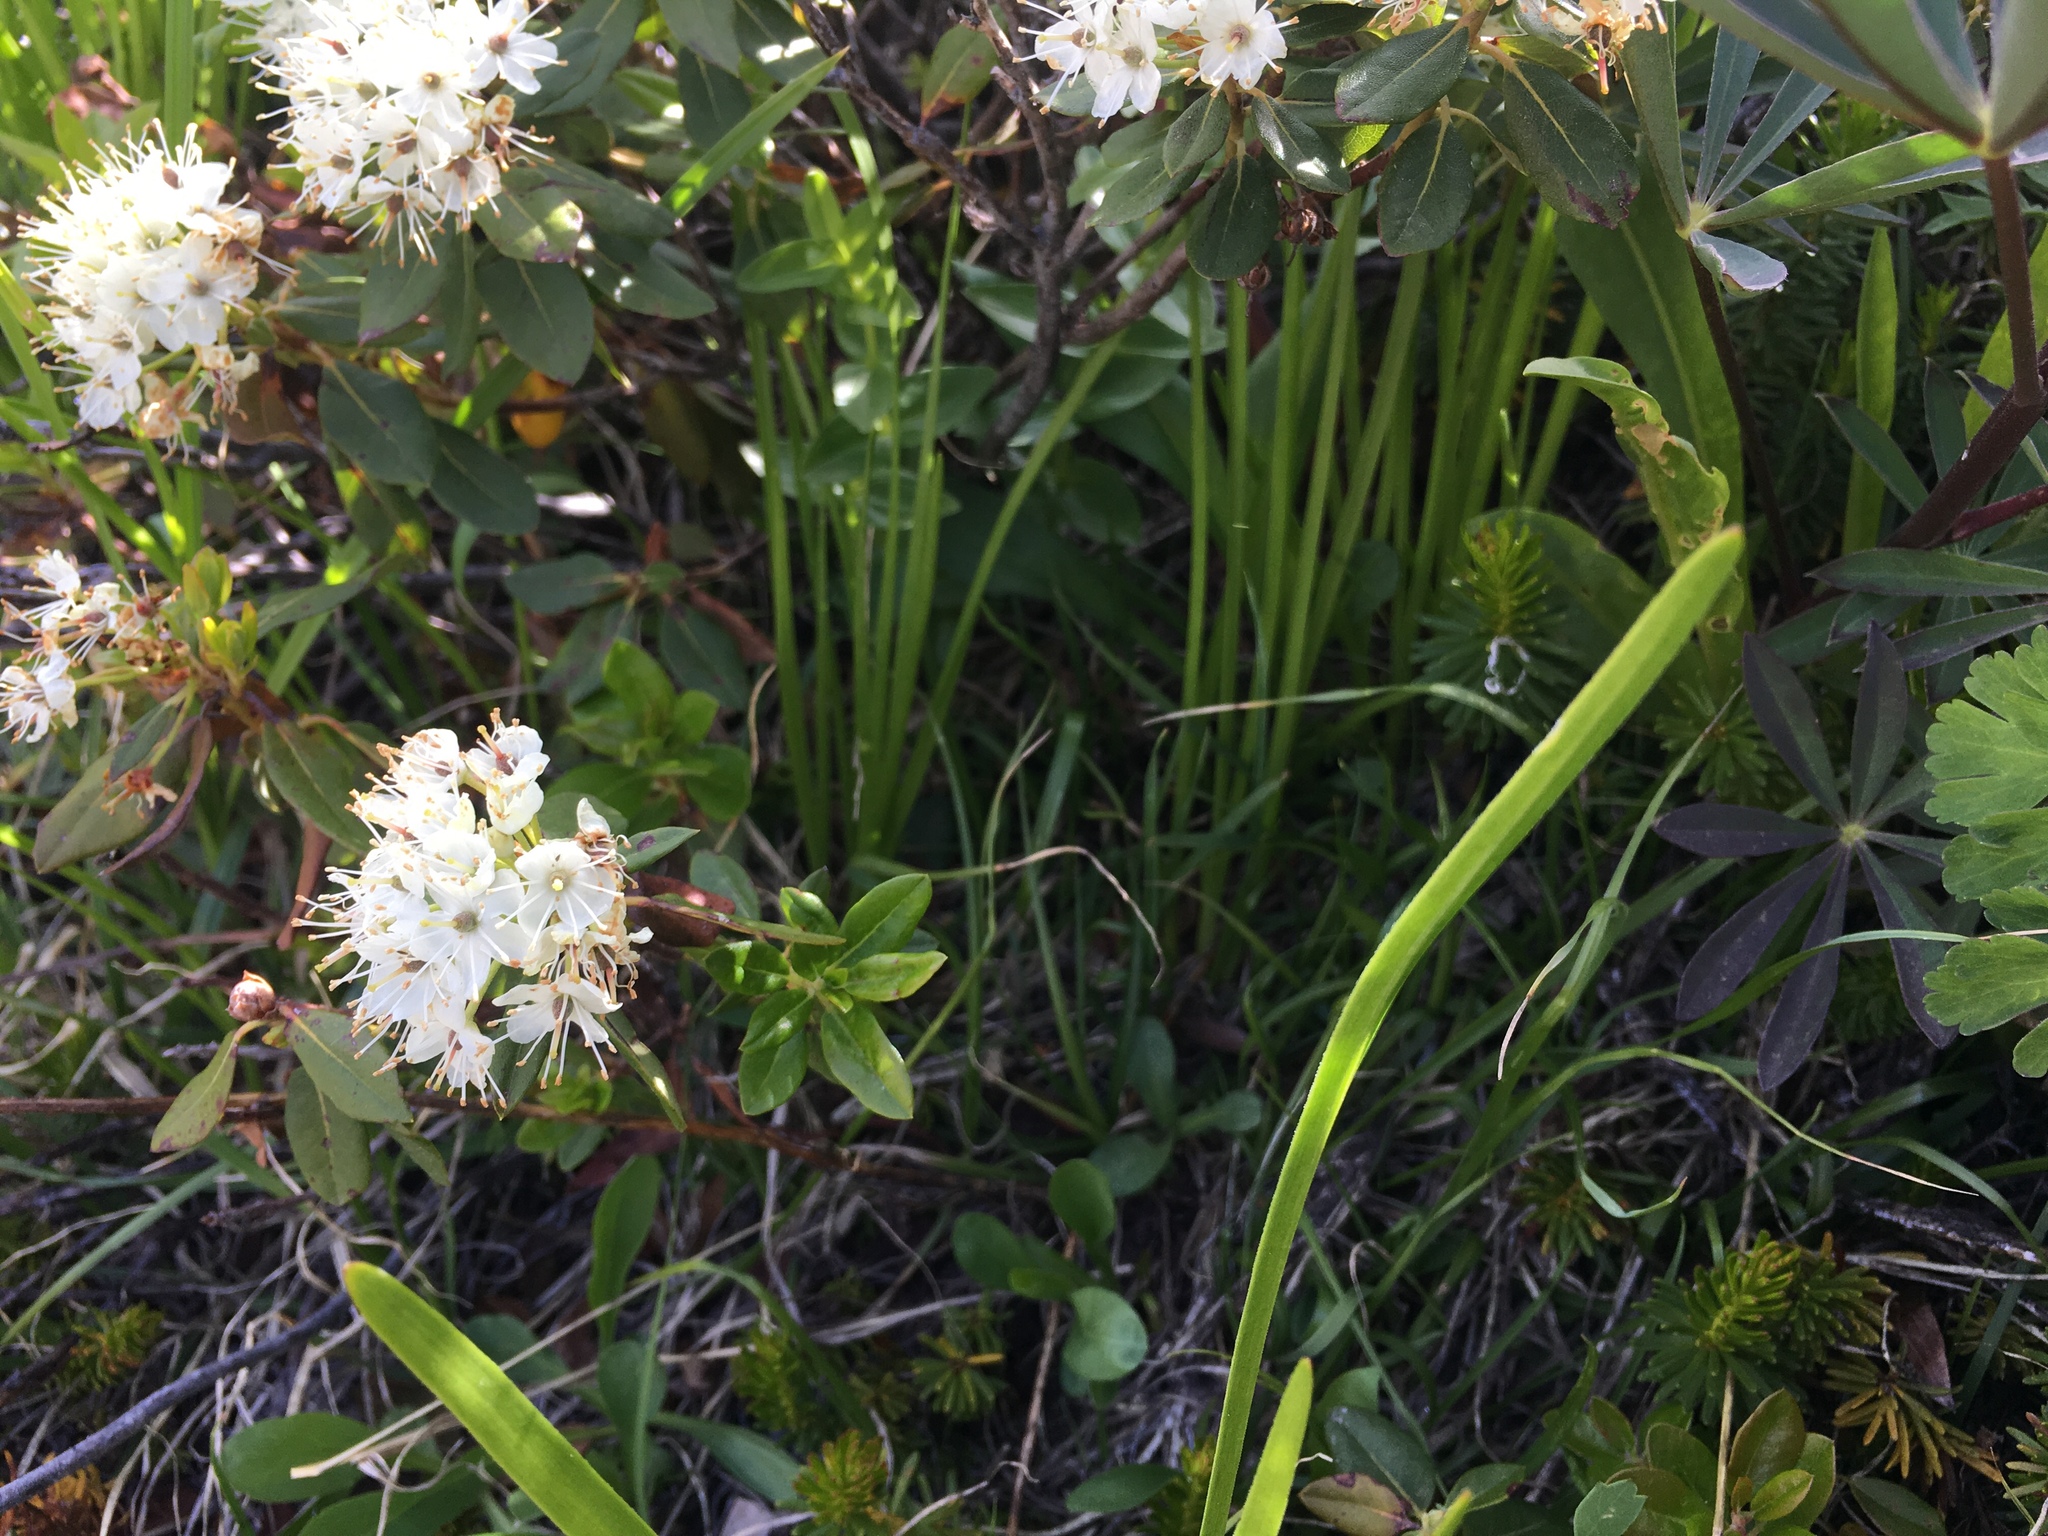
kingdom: Plantae
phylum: Tracheophyta
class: Magnoliopsida
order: Ericales
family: Ericaceae
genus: Rhododendron
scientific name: Rhododendron columbianum
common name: Western labrador tea
